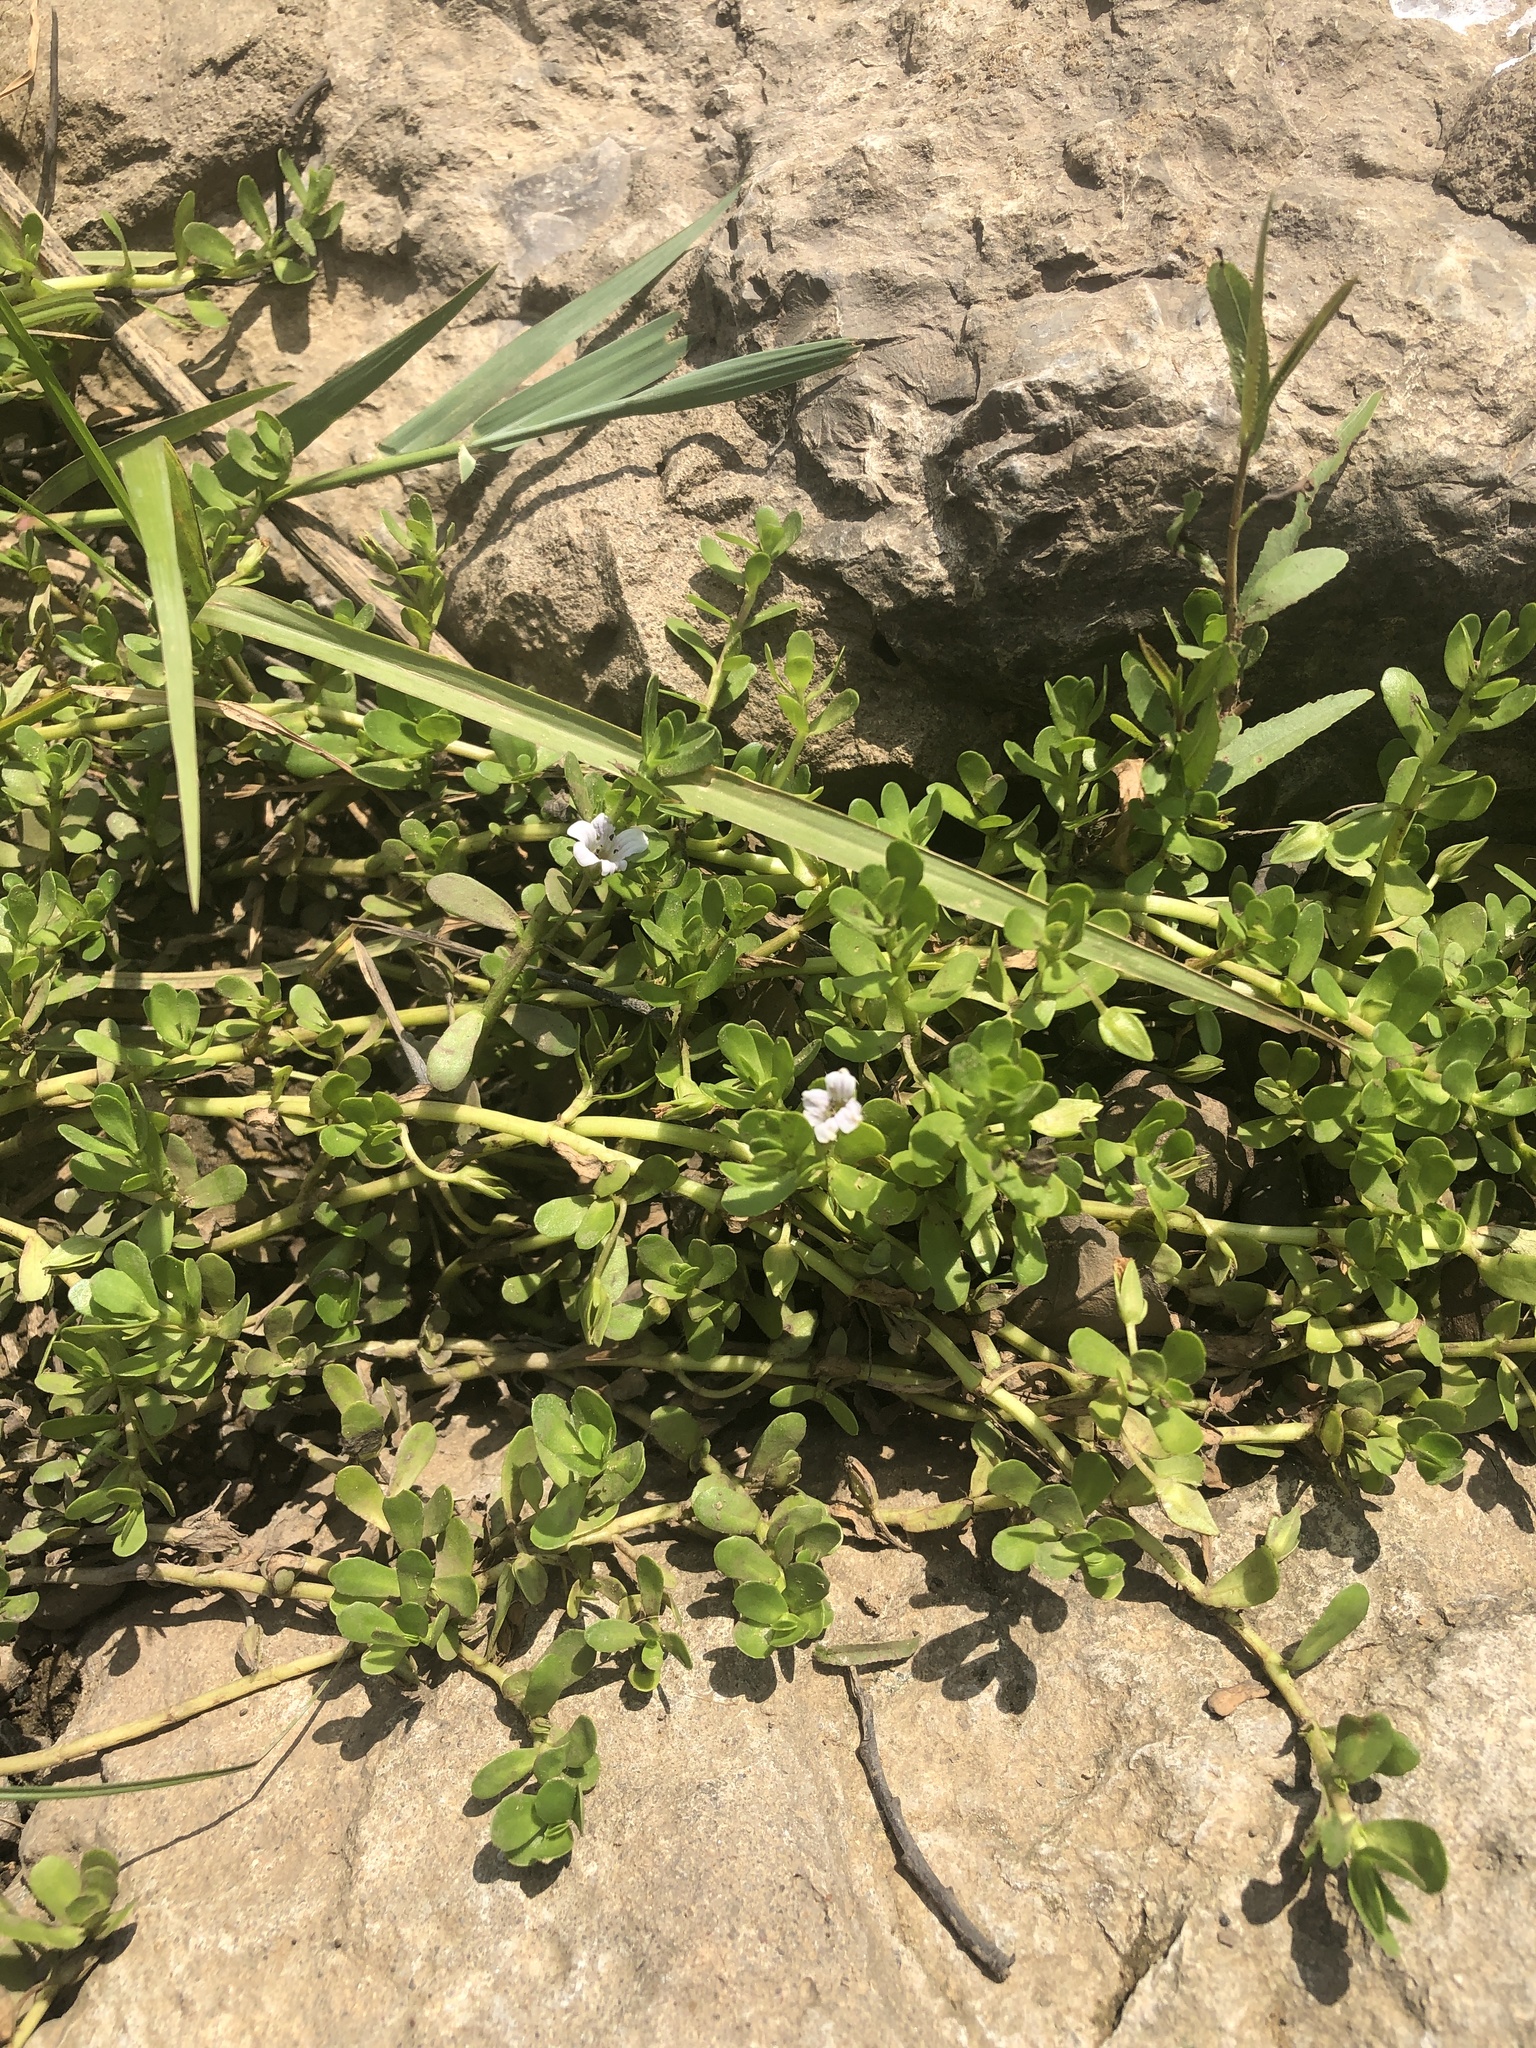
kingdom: Plantae
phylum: Tracheophyta
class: Magnoliopsida
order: Lamiales
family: Plantaginaceae
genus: Bacopa
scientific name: Bacopa monnieri
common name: Indian-pennywort
